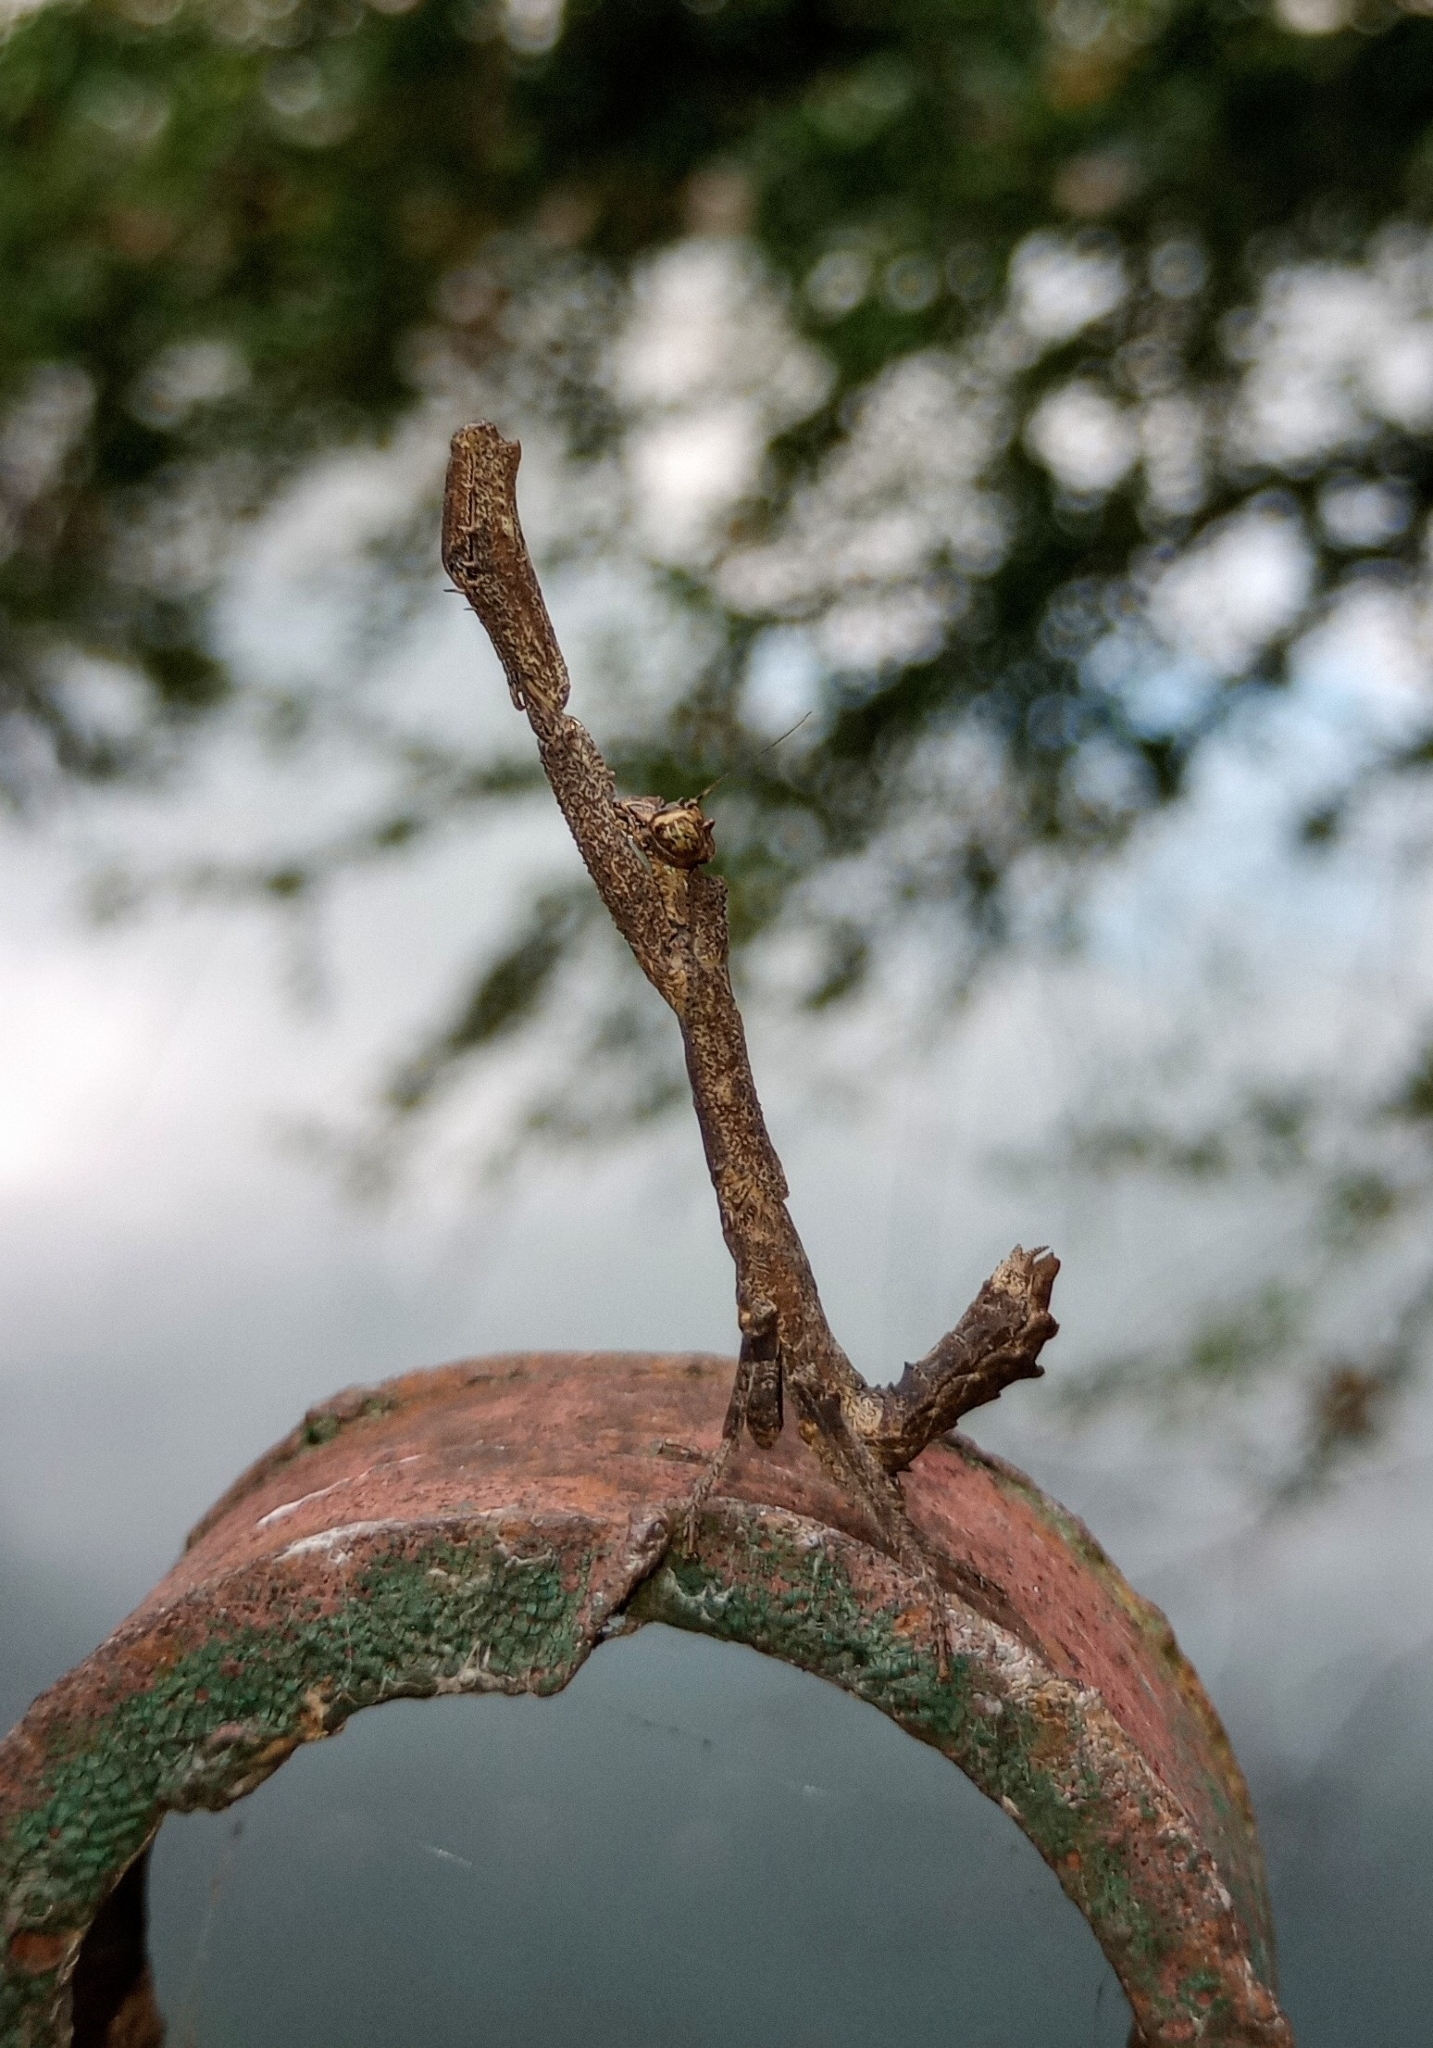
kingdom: Animalia
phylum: Arthropoda
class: Insecta
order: Mantodea
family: Hymenopodidae
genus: Ambivia
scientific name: Ambivia
